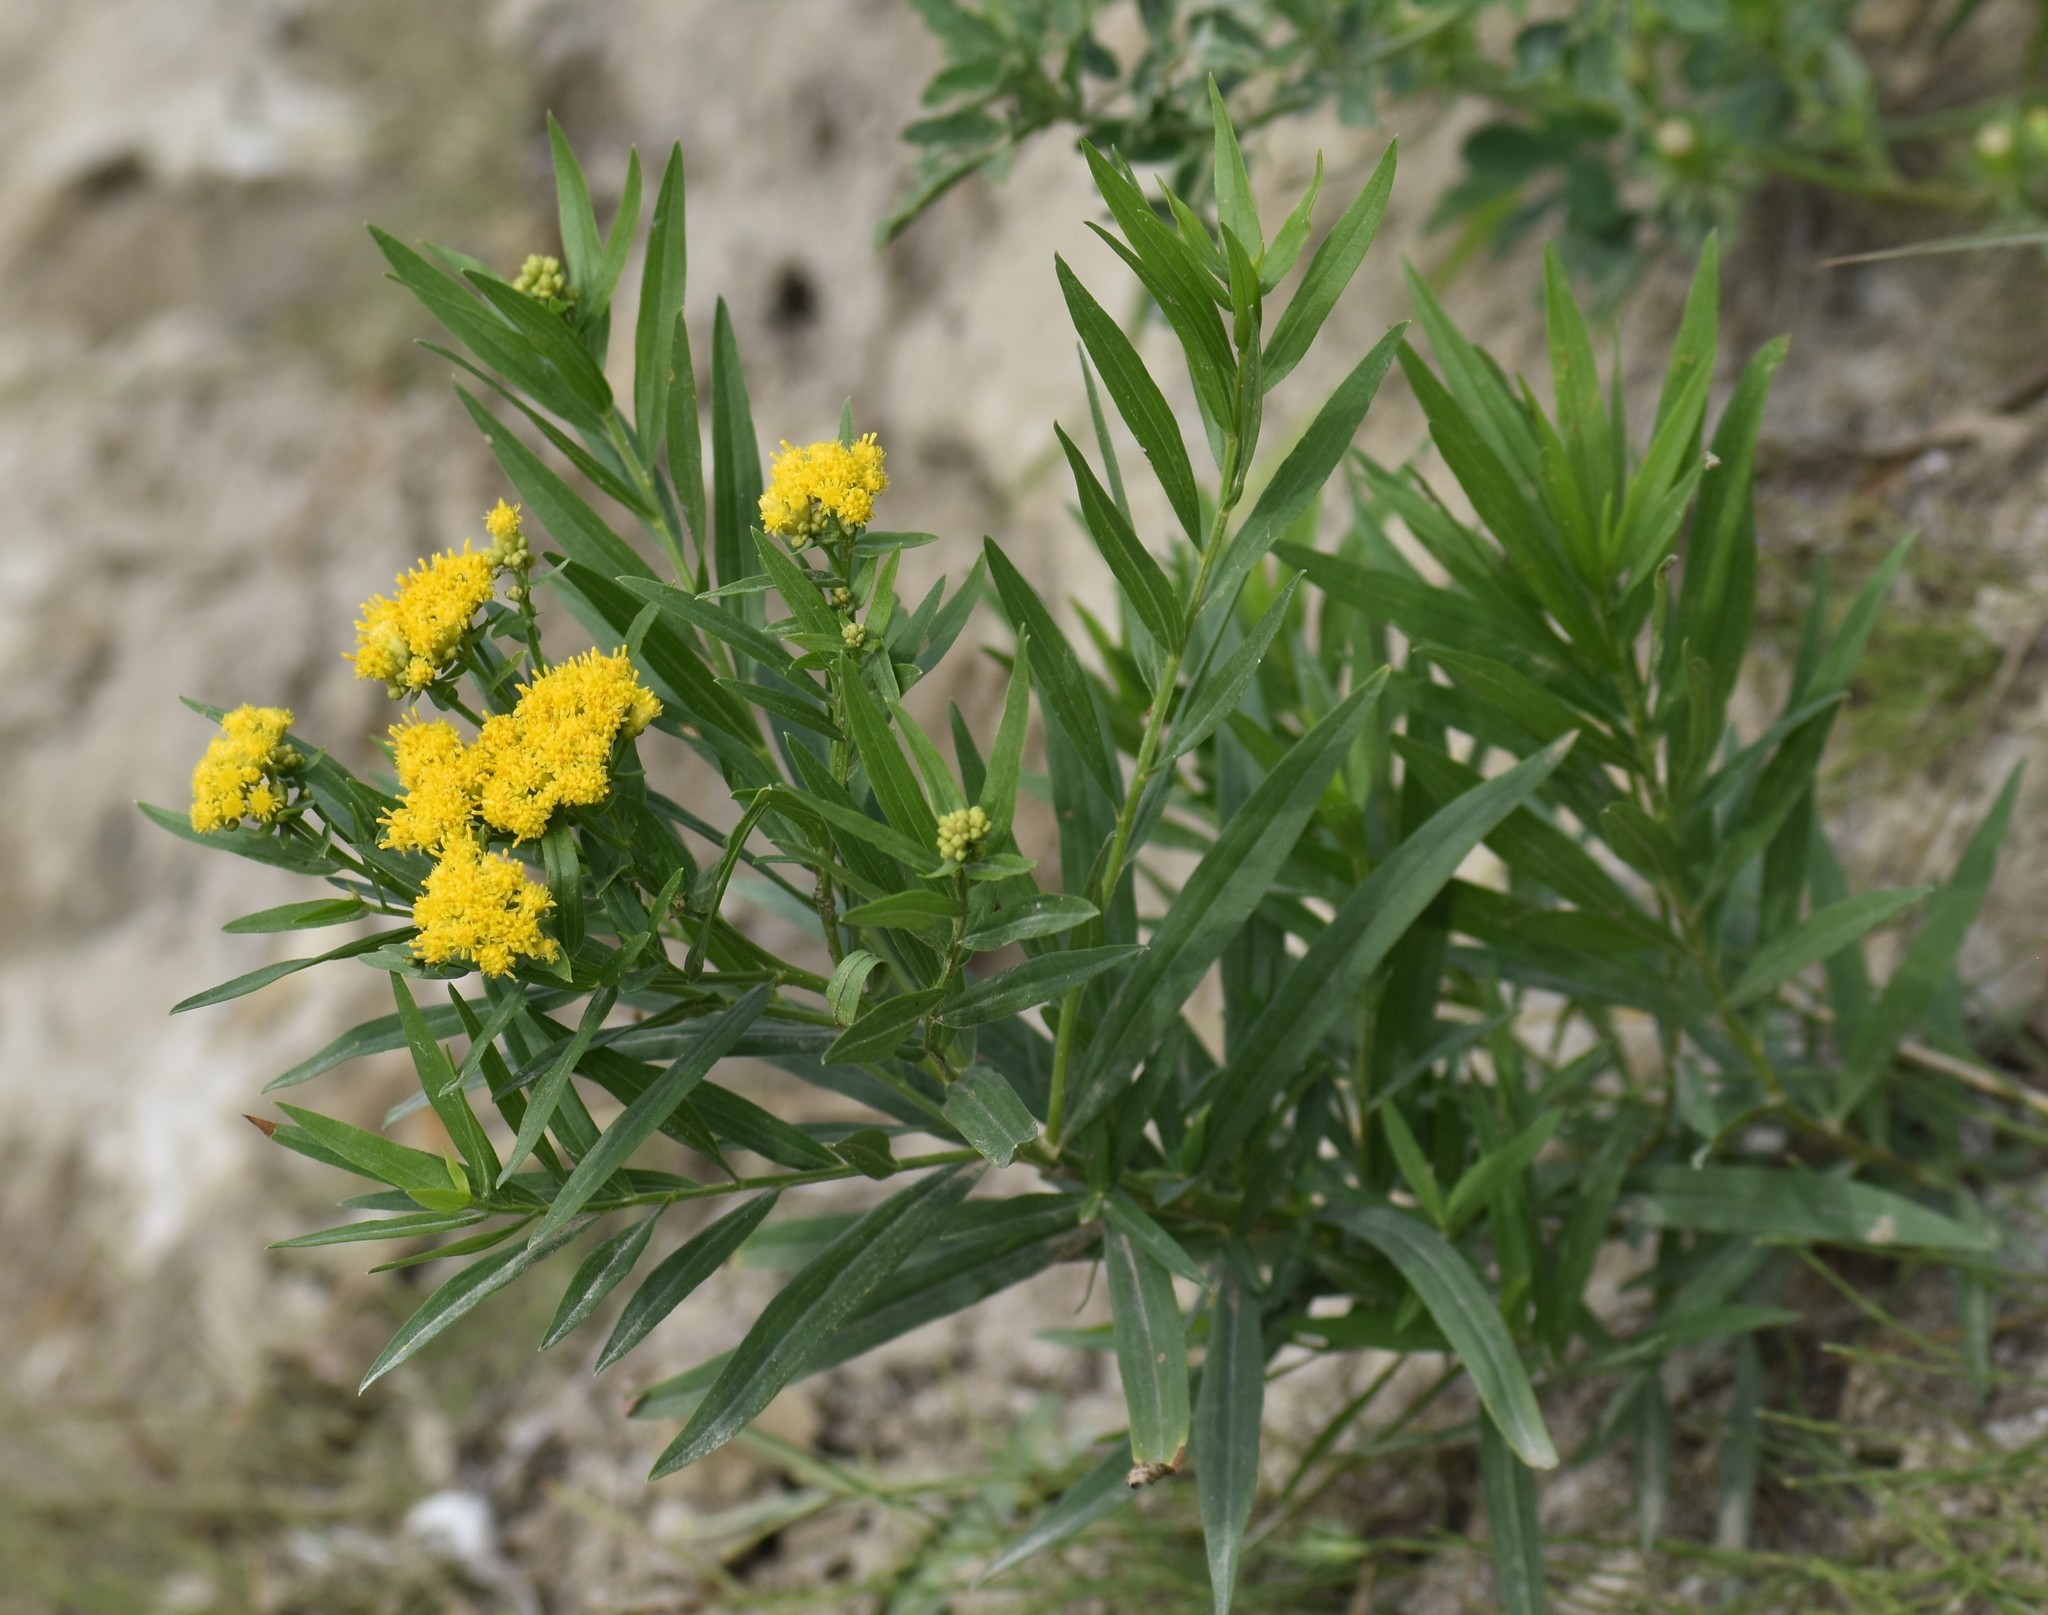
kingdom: Plantae
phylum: Tracheophyta
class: Magnoliopsida
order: Asterales
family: Asteraceae
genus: Euthamia
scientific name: Euthamia graminifolia
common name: Common goldentop
